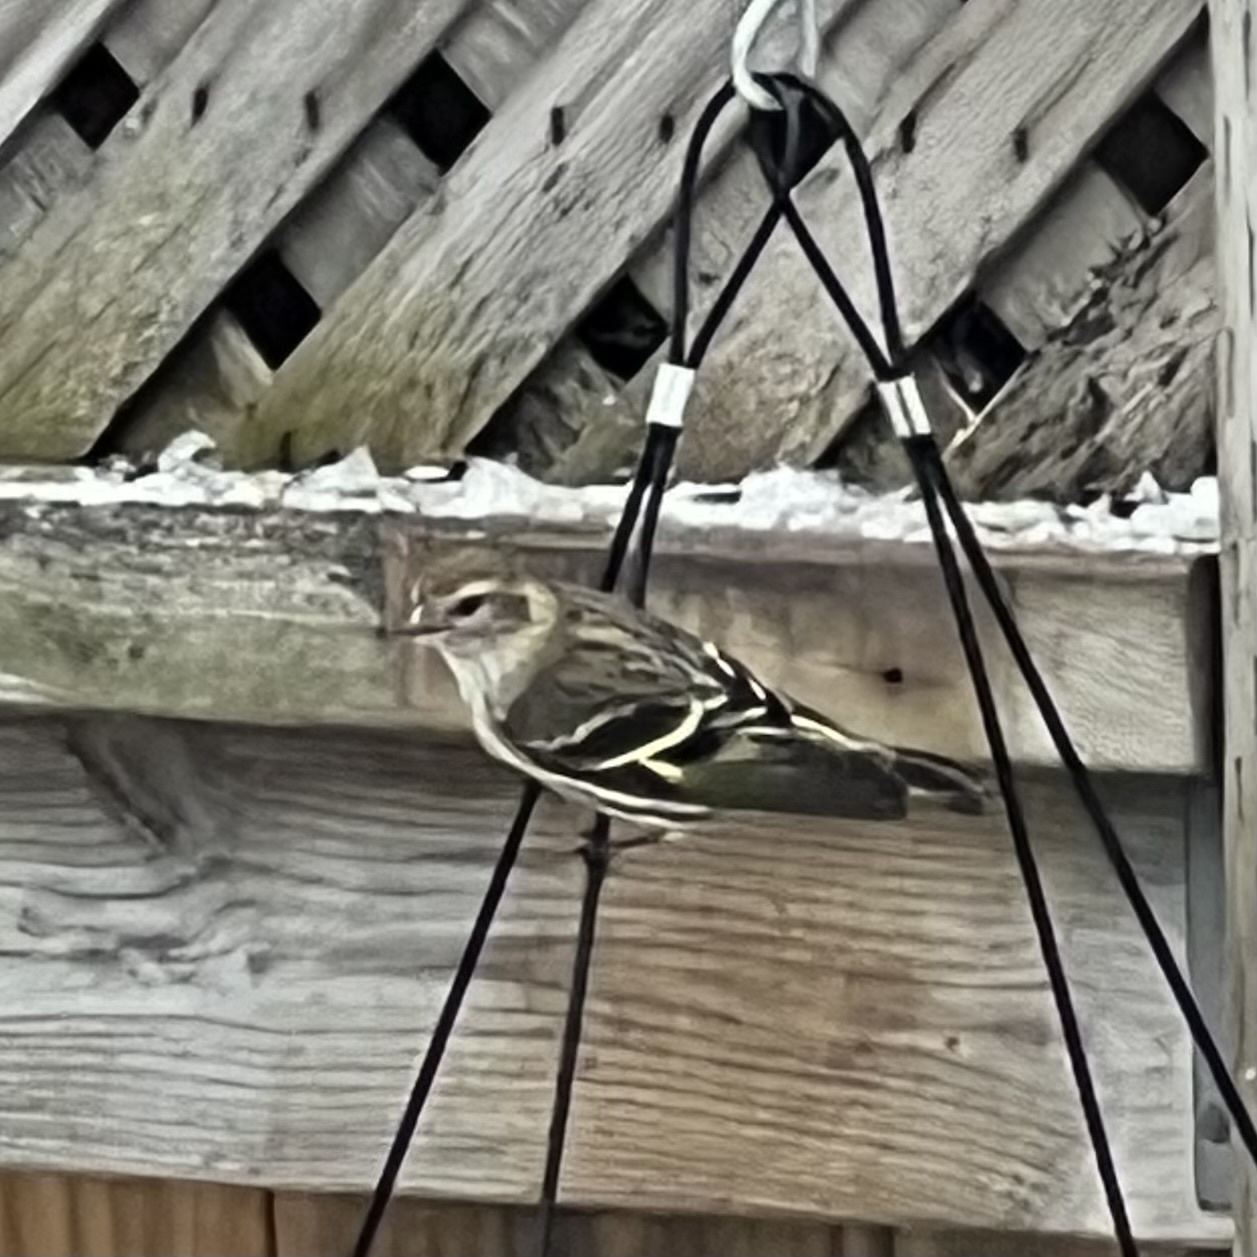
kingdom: Animalia
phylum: Chordata
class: Aves
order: Passeriformes
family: Fringillidae
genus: Spinus
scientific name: Spinus pinus
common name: Pine siskin
